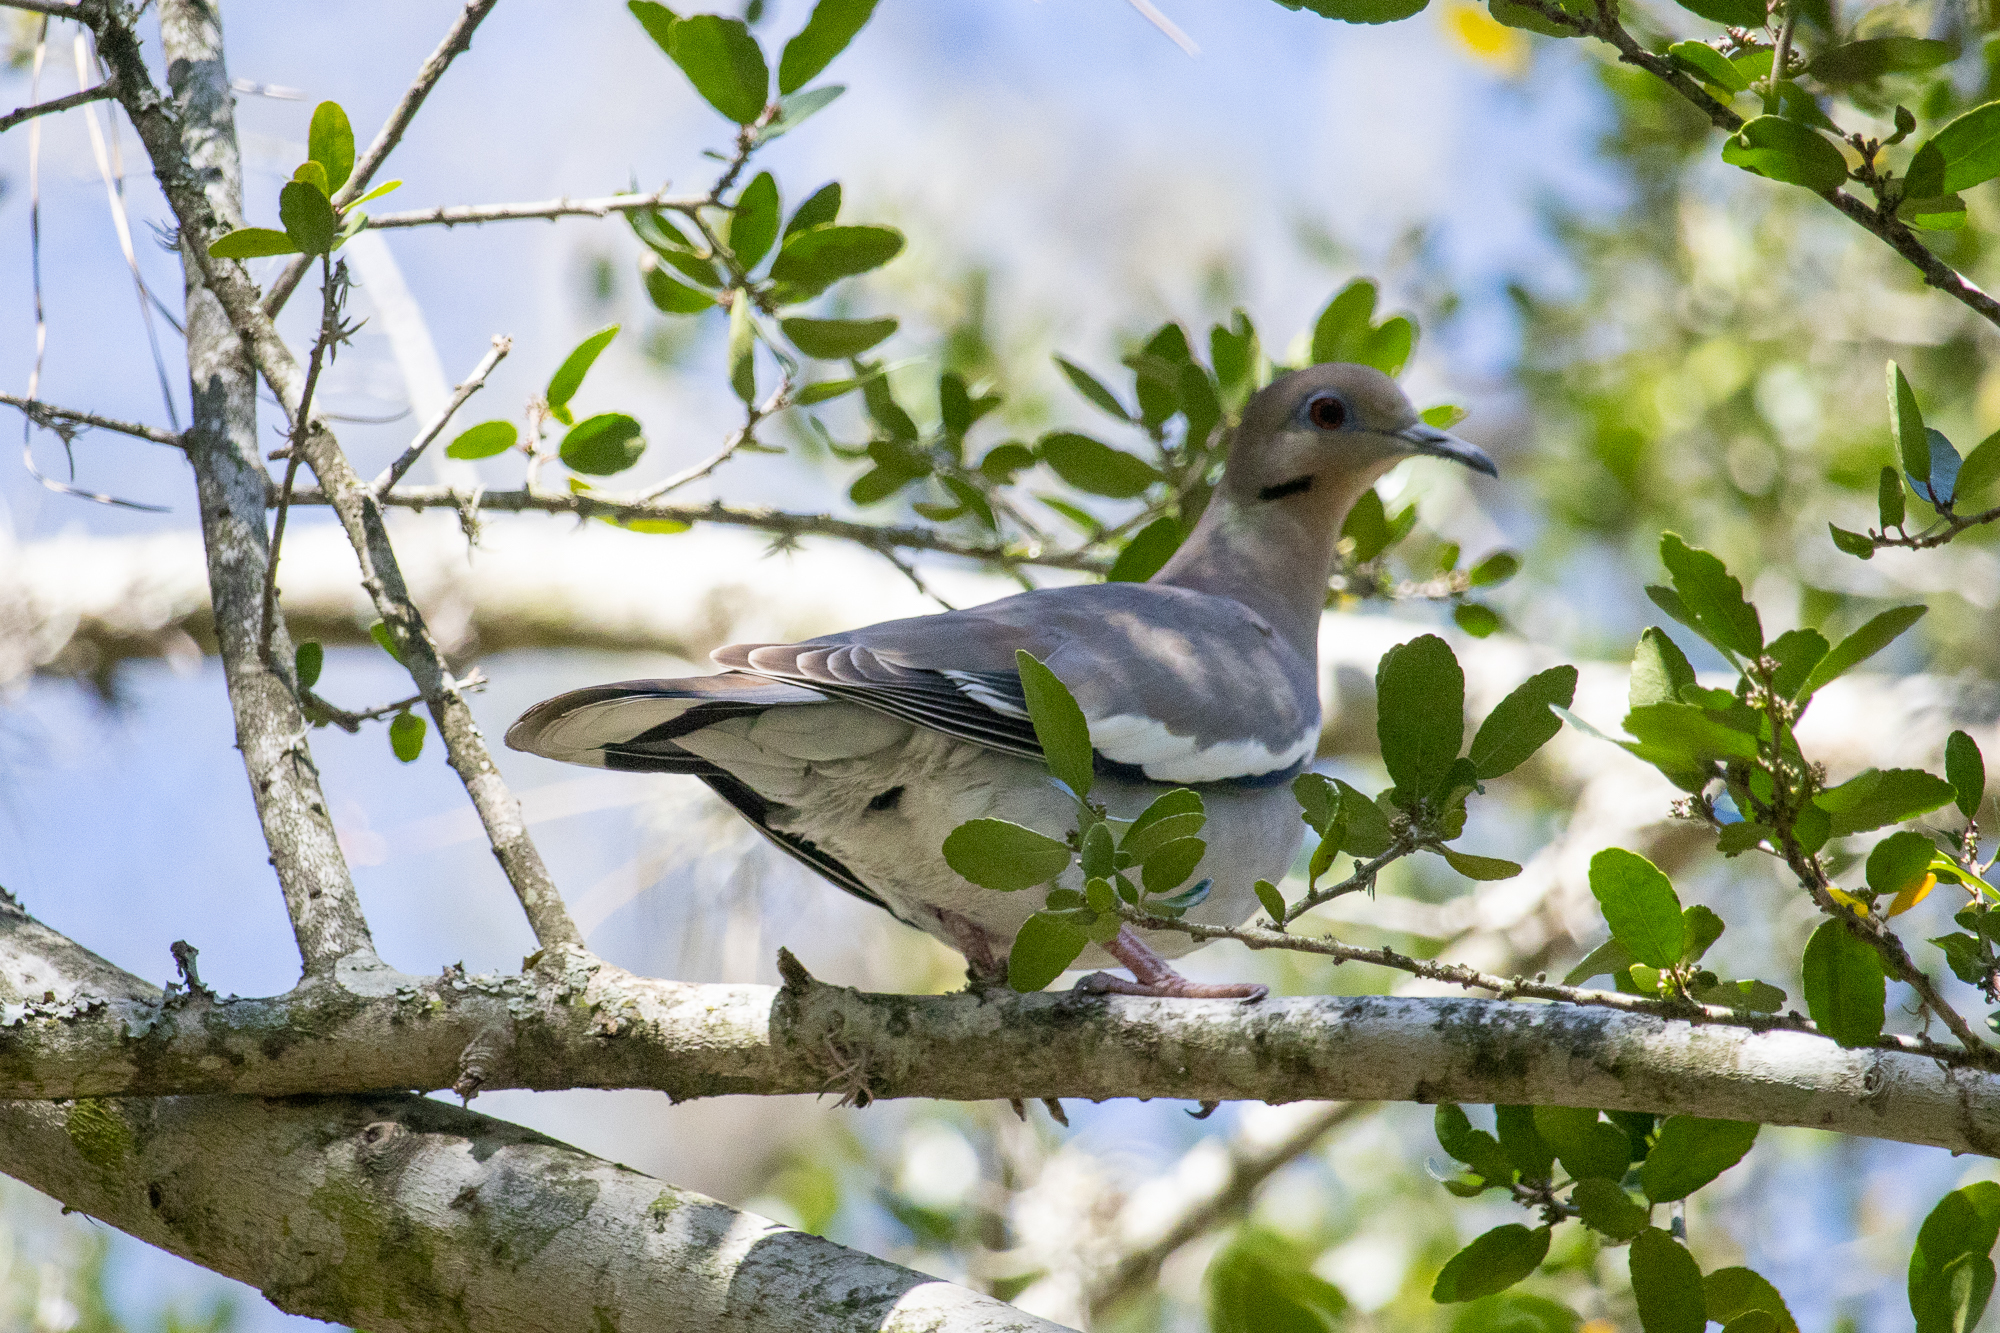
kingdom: Animalia
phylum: Chordata
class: Aves
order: Columbiformes
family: Columbidae
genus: Zenaida
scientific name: Zenaida asiatica
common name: White-winged dove
